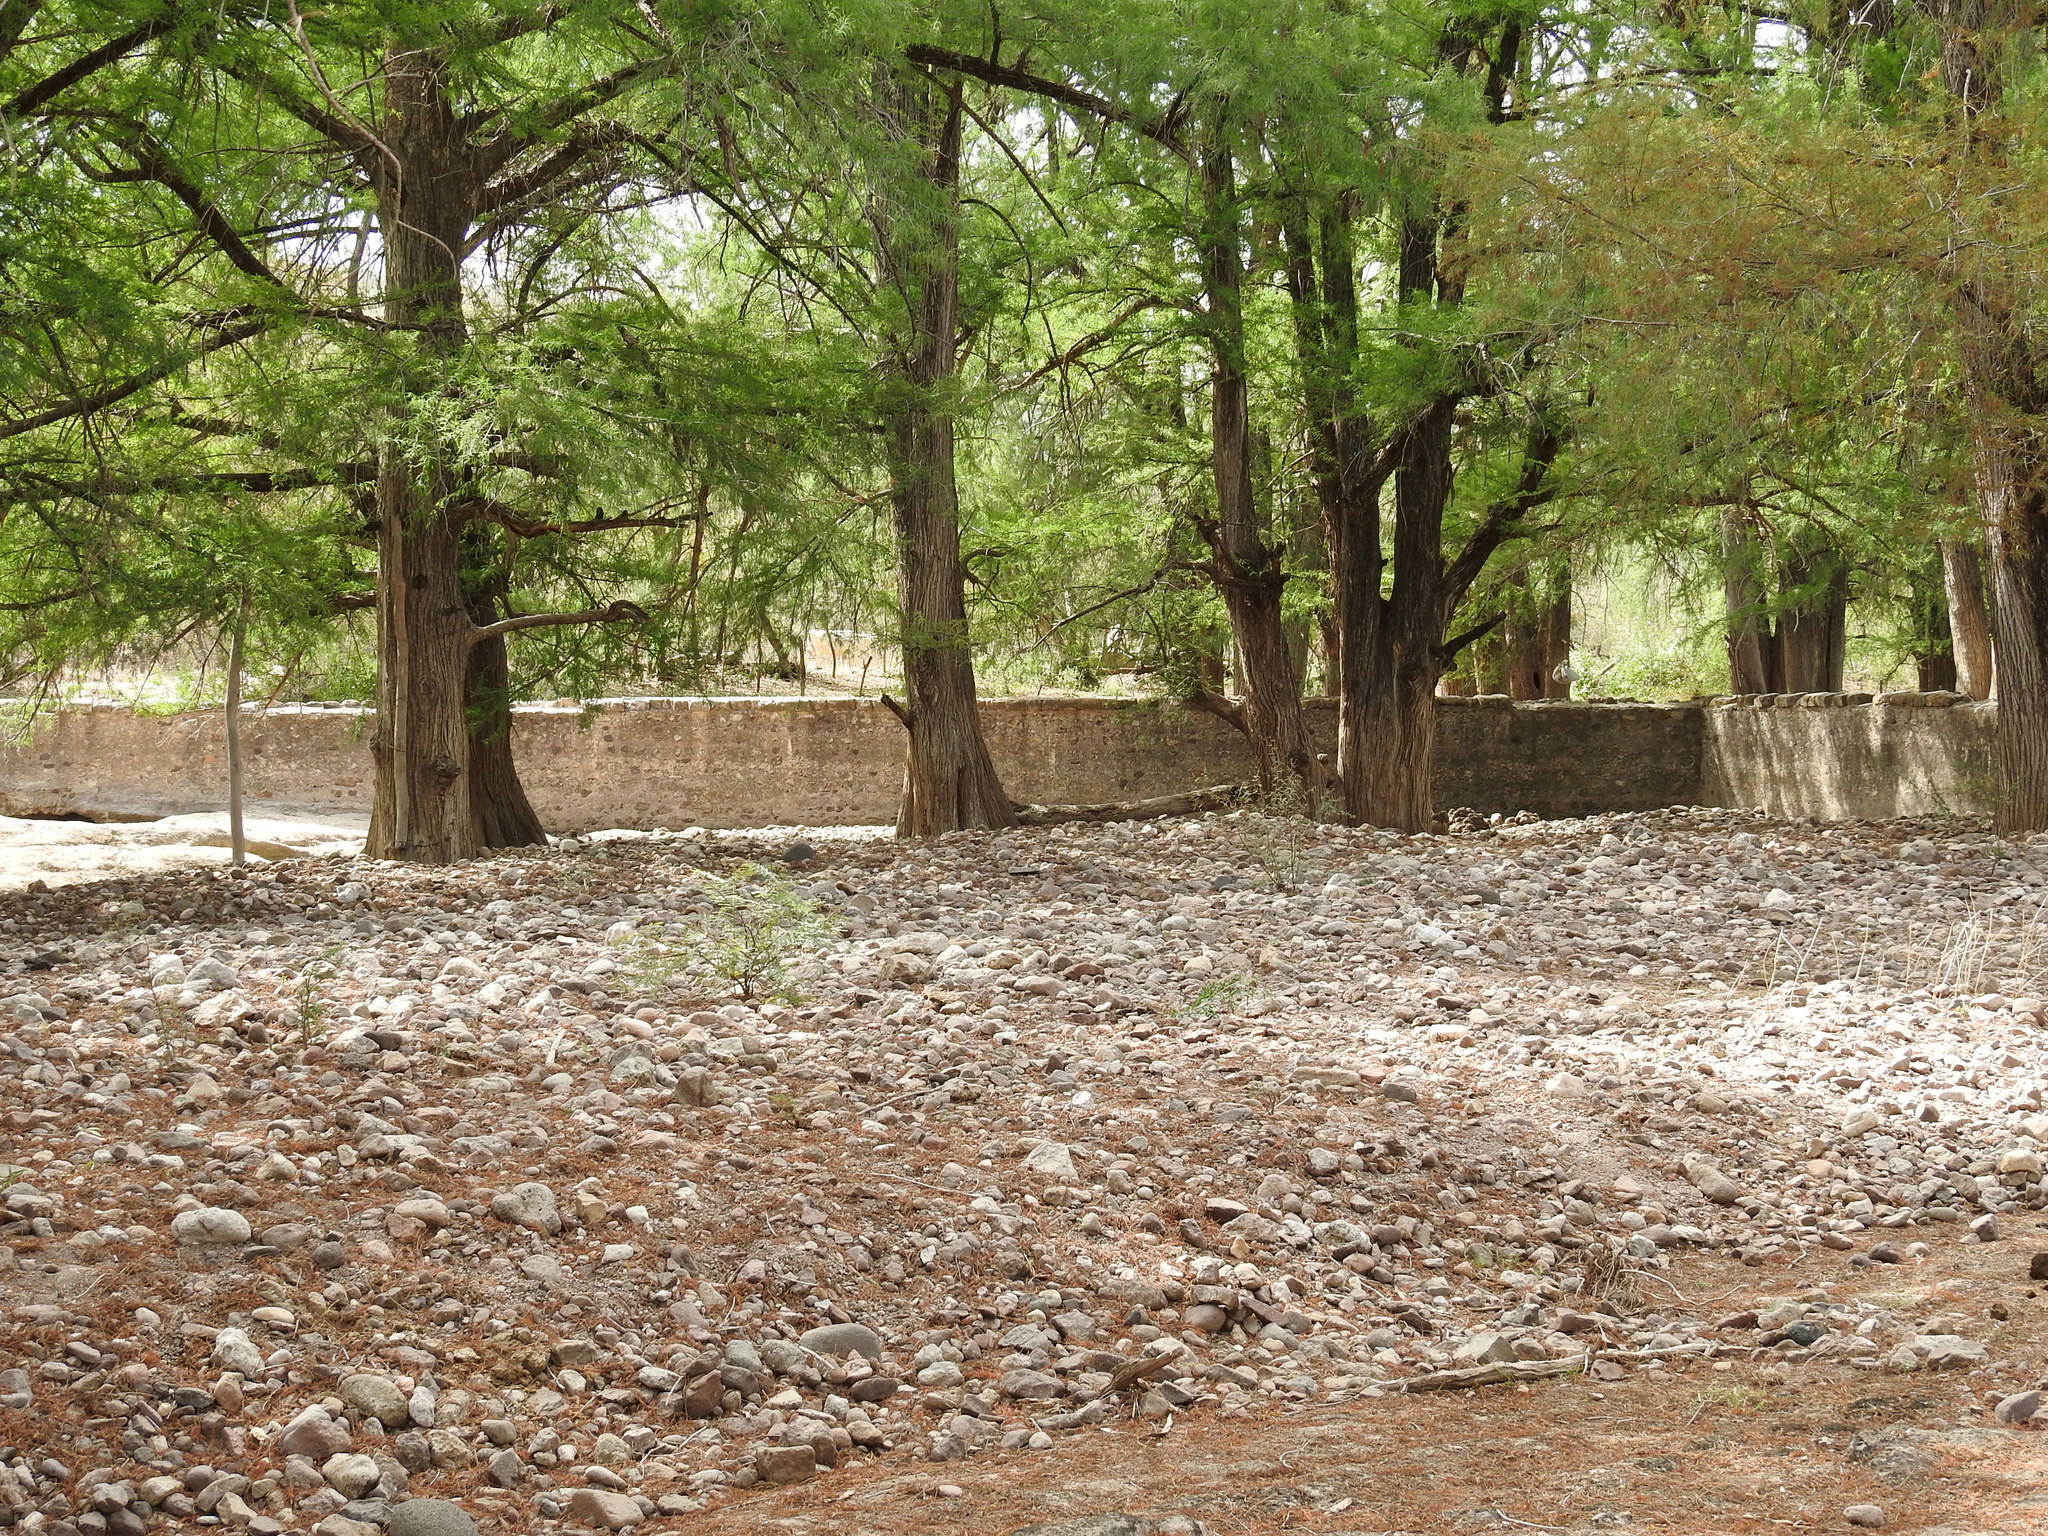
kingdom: Plantae
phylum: Tracheophyta
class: Pinopsida
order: Pinales
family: Cupressaceae
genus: Taxodium
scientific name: Taxodium mucronatum
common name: Montezume bald cypress
